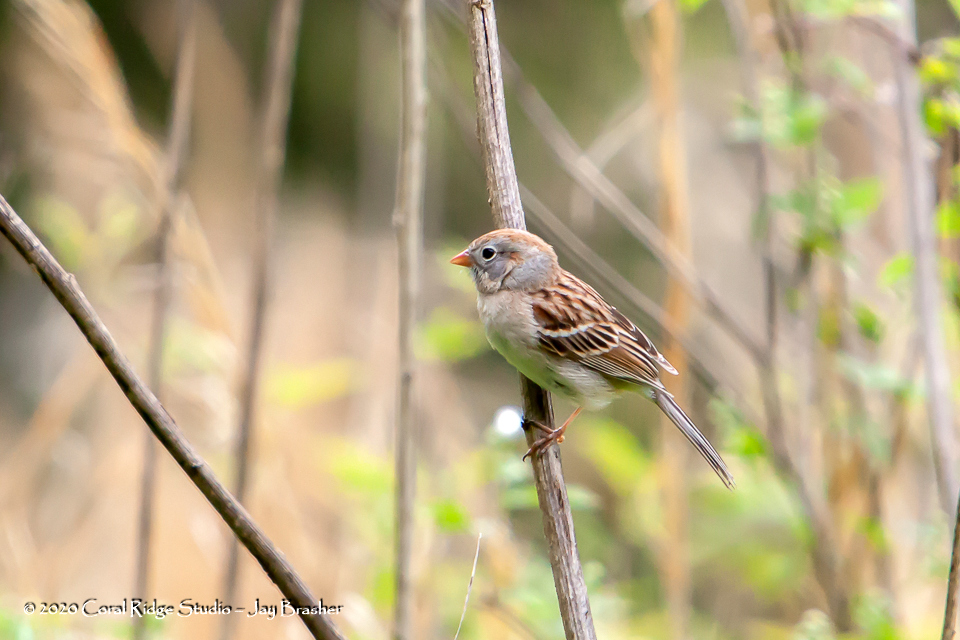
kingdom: Animalia
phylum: Chordata
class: Aves
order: Passeriformes
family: Passerellidae
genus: Spizella
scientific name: Spizella pusilla
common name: Field sparrow
